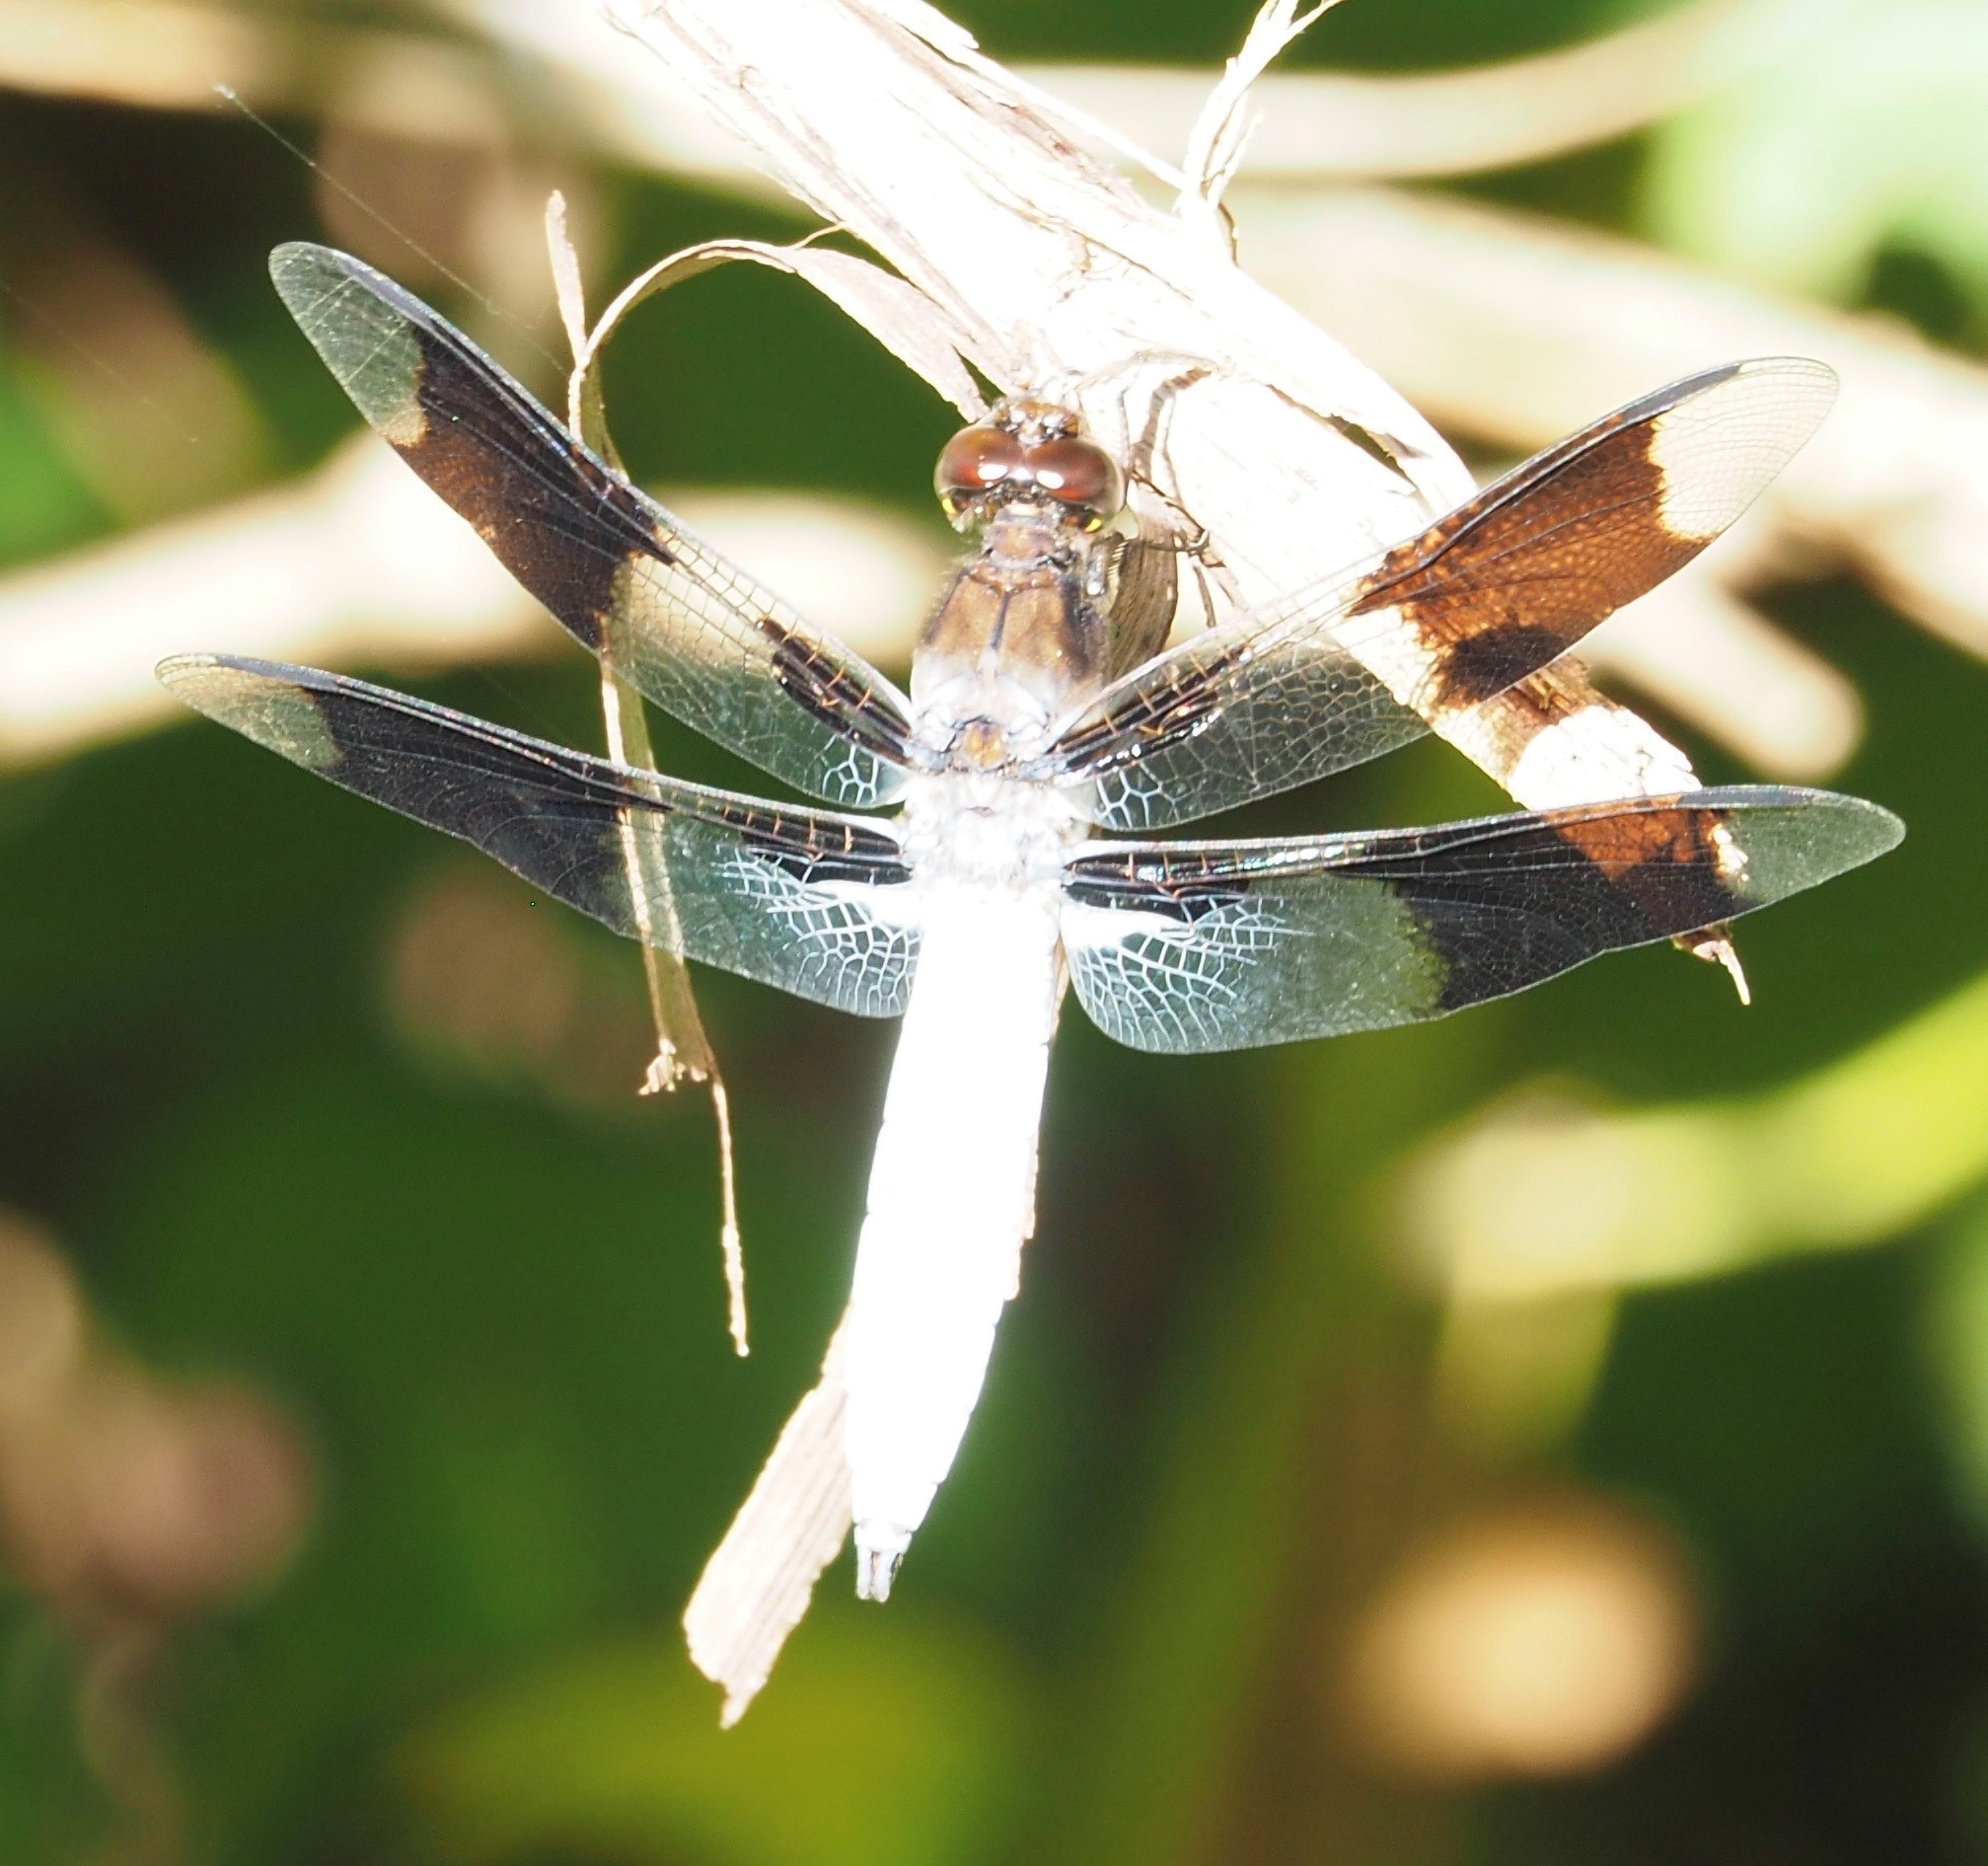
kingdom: Animalia
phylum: Arthropoda
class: Insecta
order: Odonata
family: Libellulidae
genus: Plathemis
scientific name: Plathemis lydia
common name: Common whitetail
